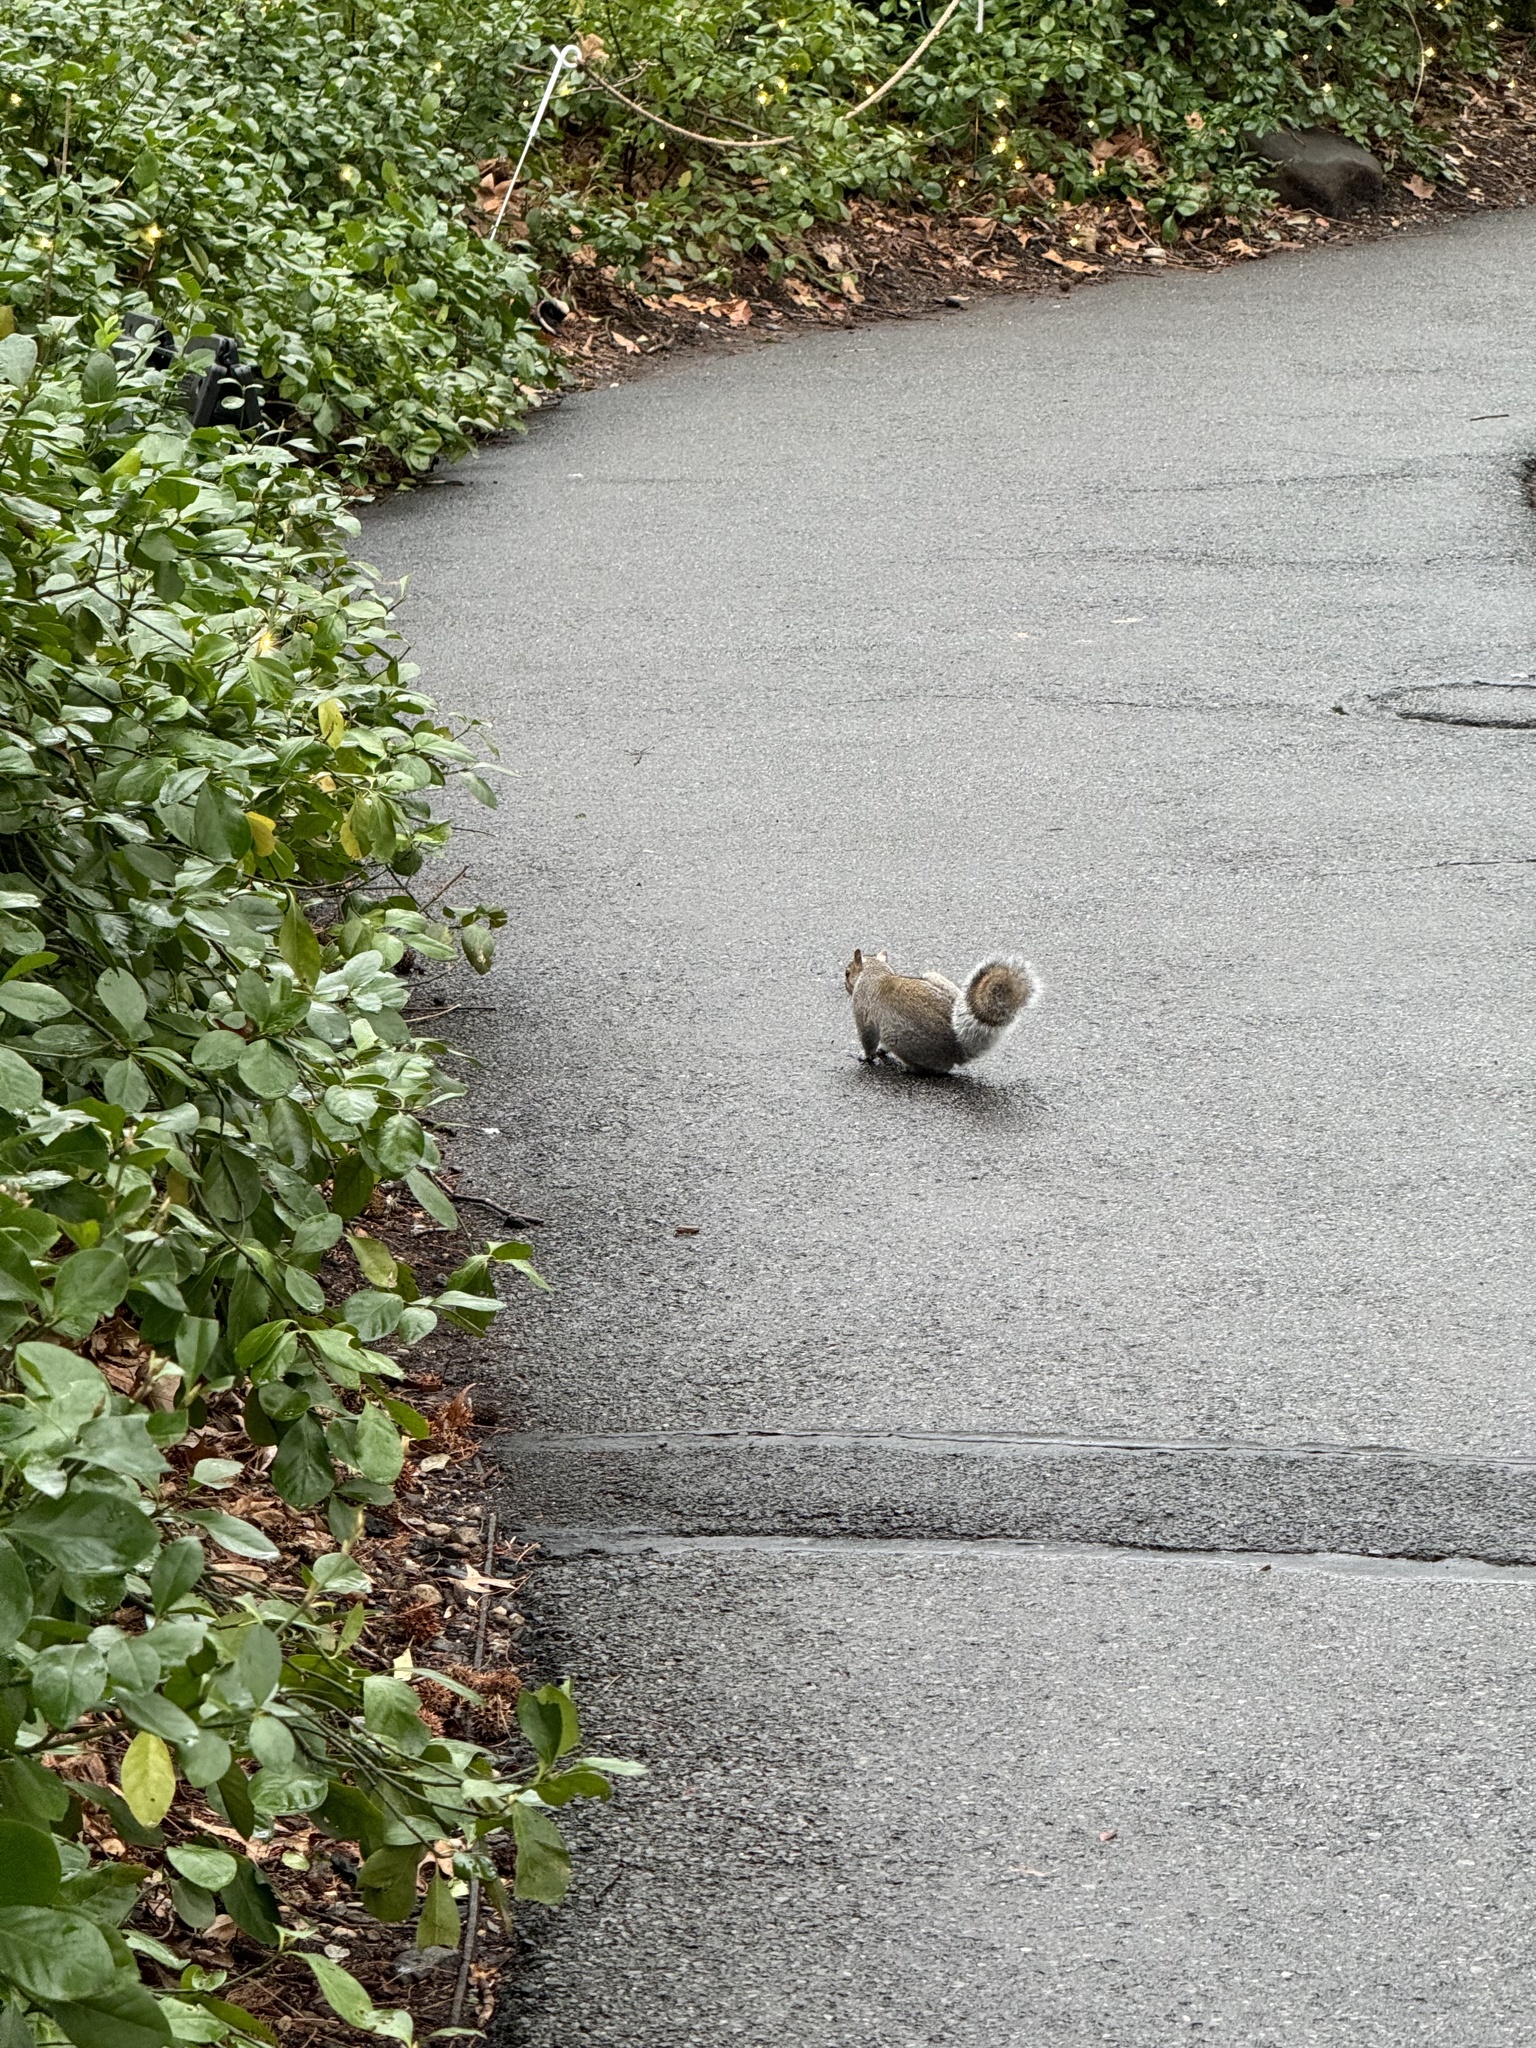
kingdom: Animalia
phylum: Chordata
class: Mammalia
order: Rodentia
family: Sciuridae
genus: Sciurus
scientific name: Sciurus carolinensis
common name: Eastern gray squirrel
